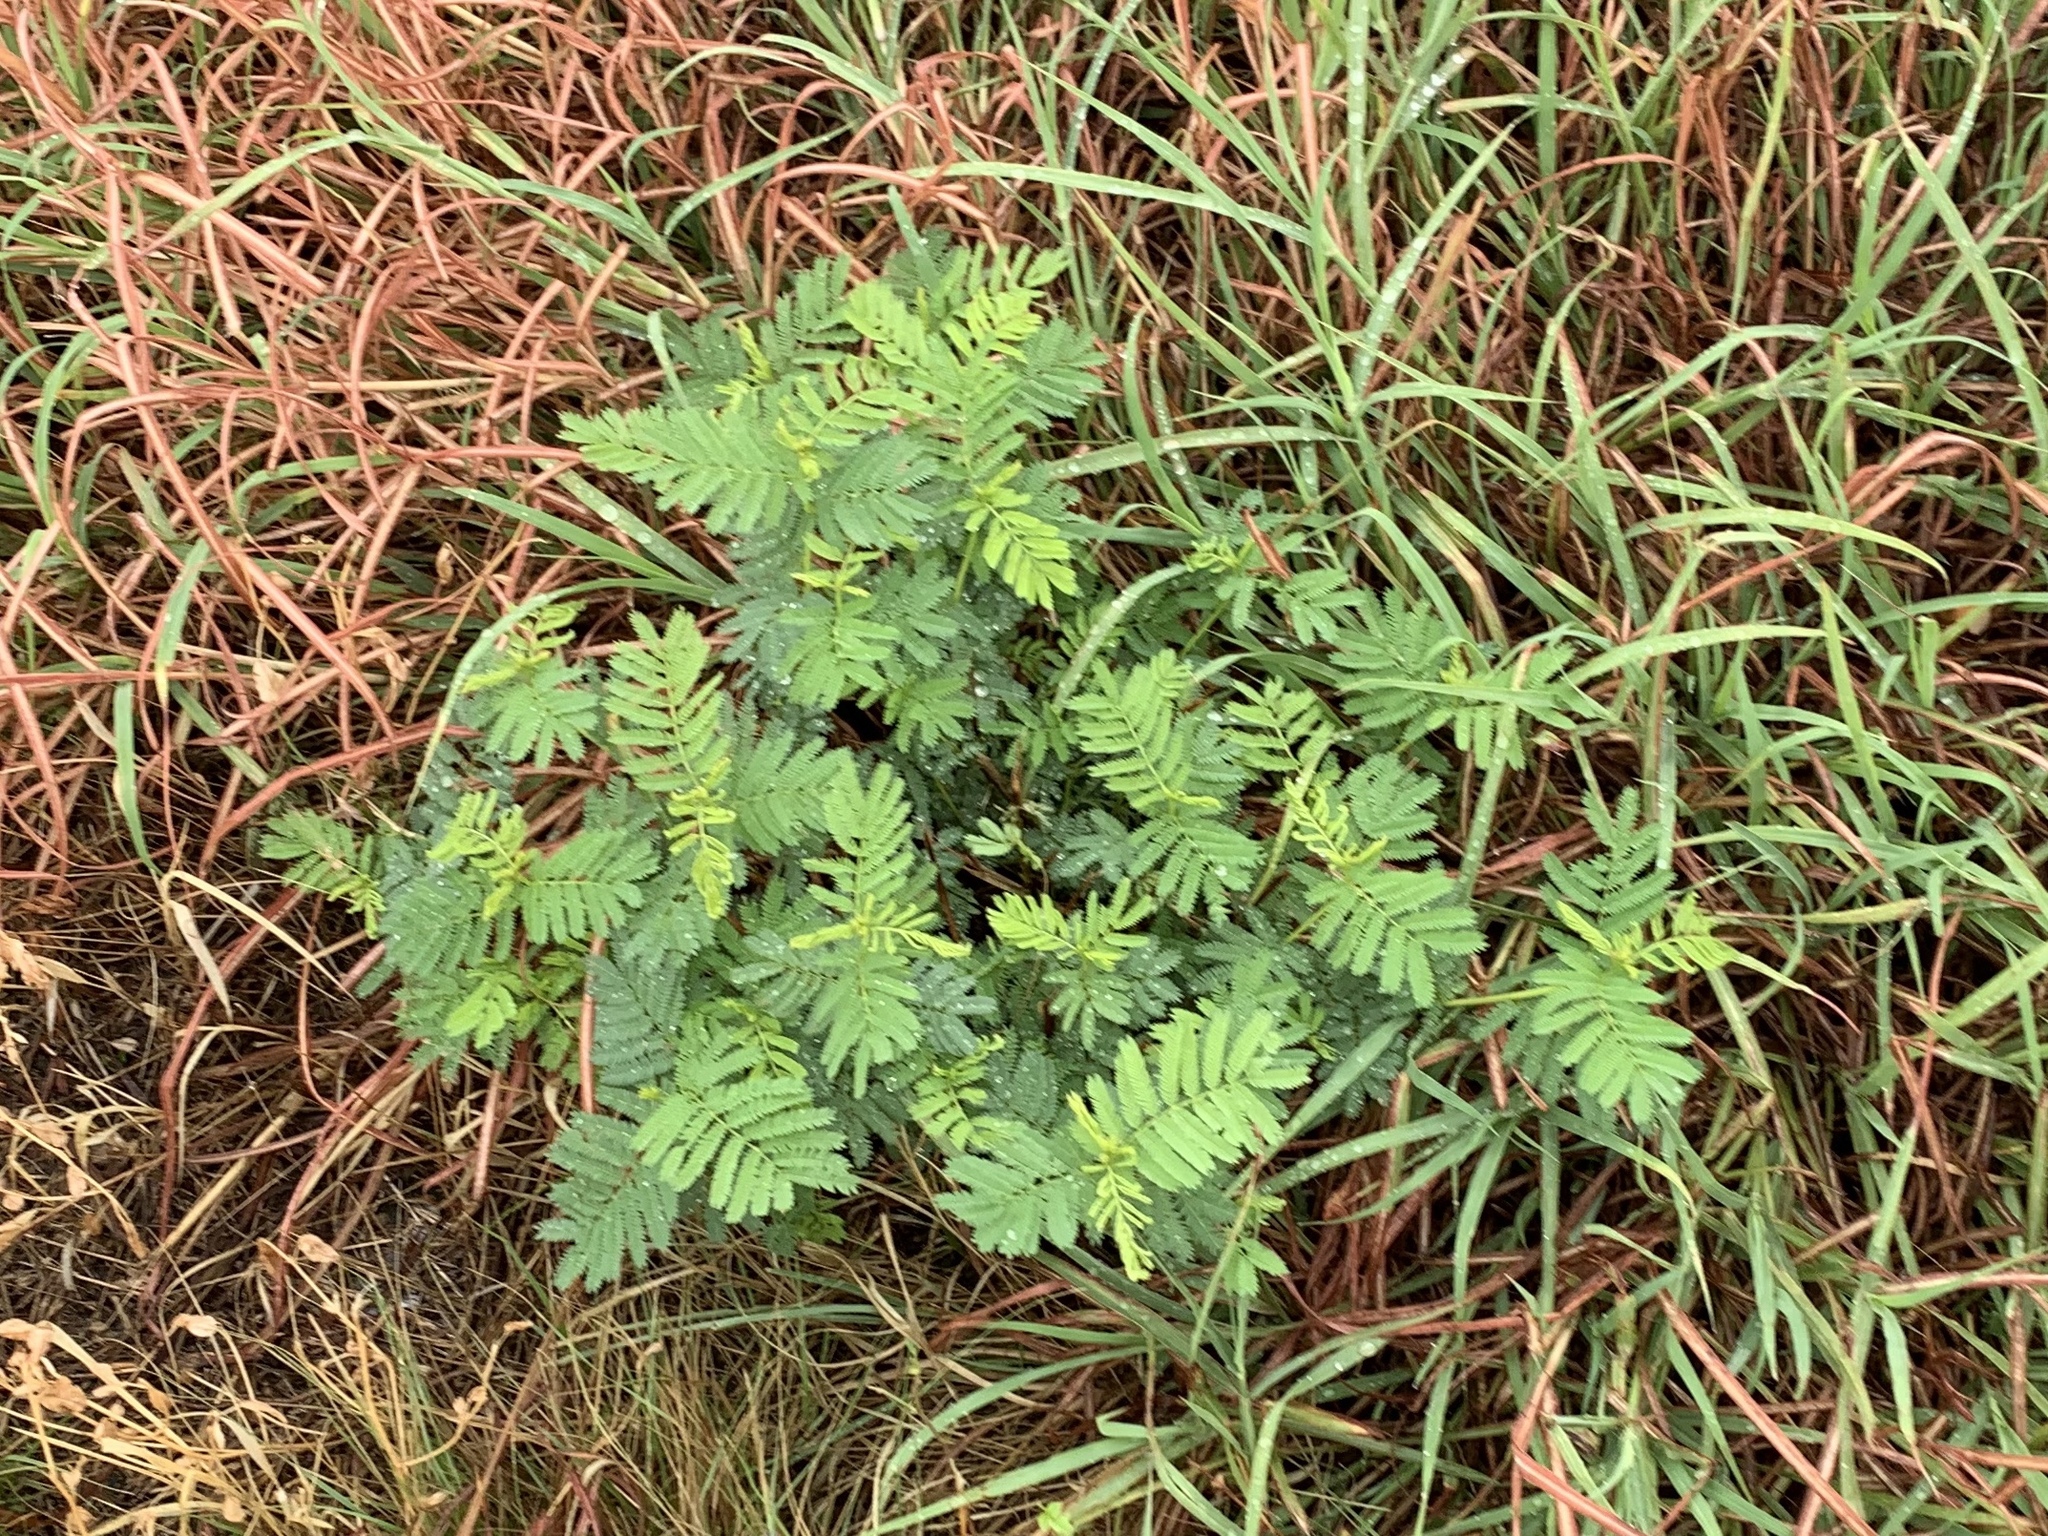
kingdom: Plantae
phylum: Tracheophyta
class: Magnoliopsida
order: Fabales
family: Fabaceae
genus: Desmanthus
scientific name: Desmanthus illinoensis
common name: Illinois bundle-flower
